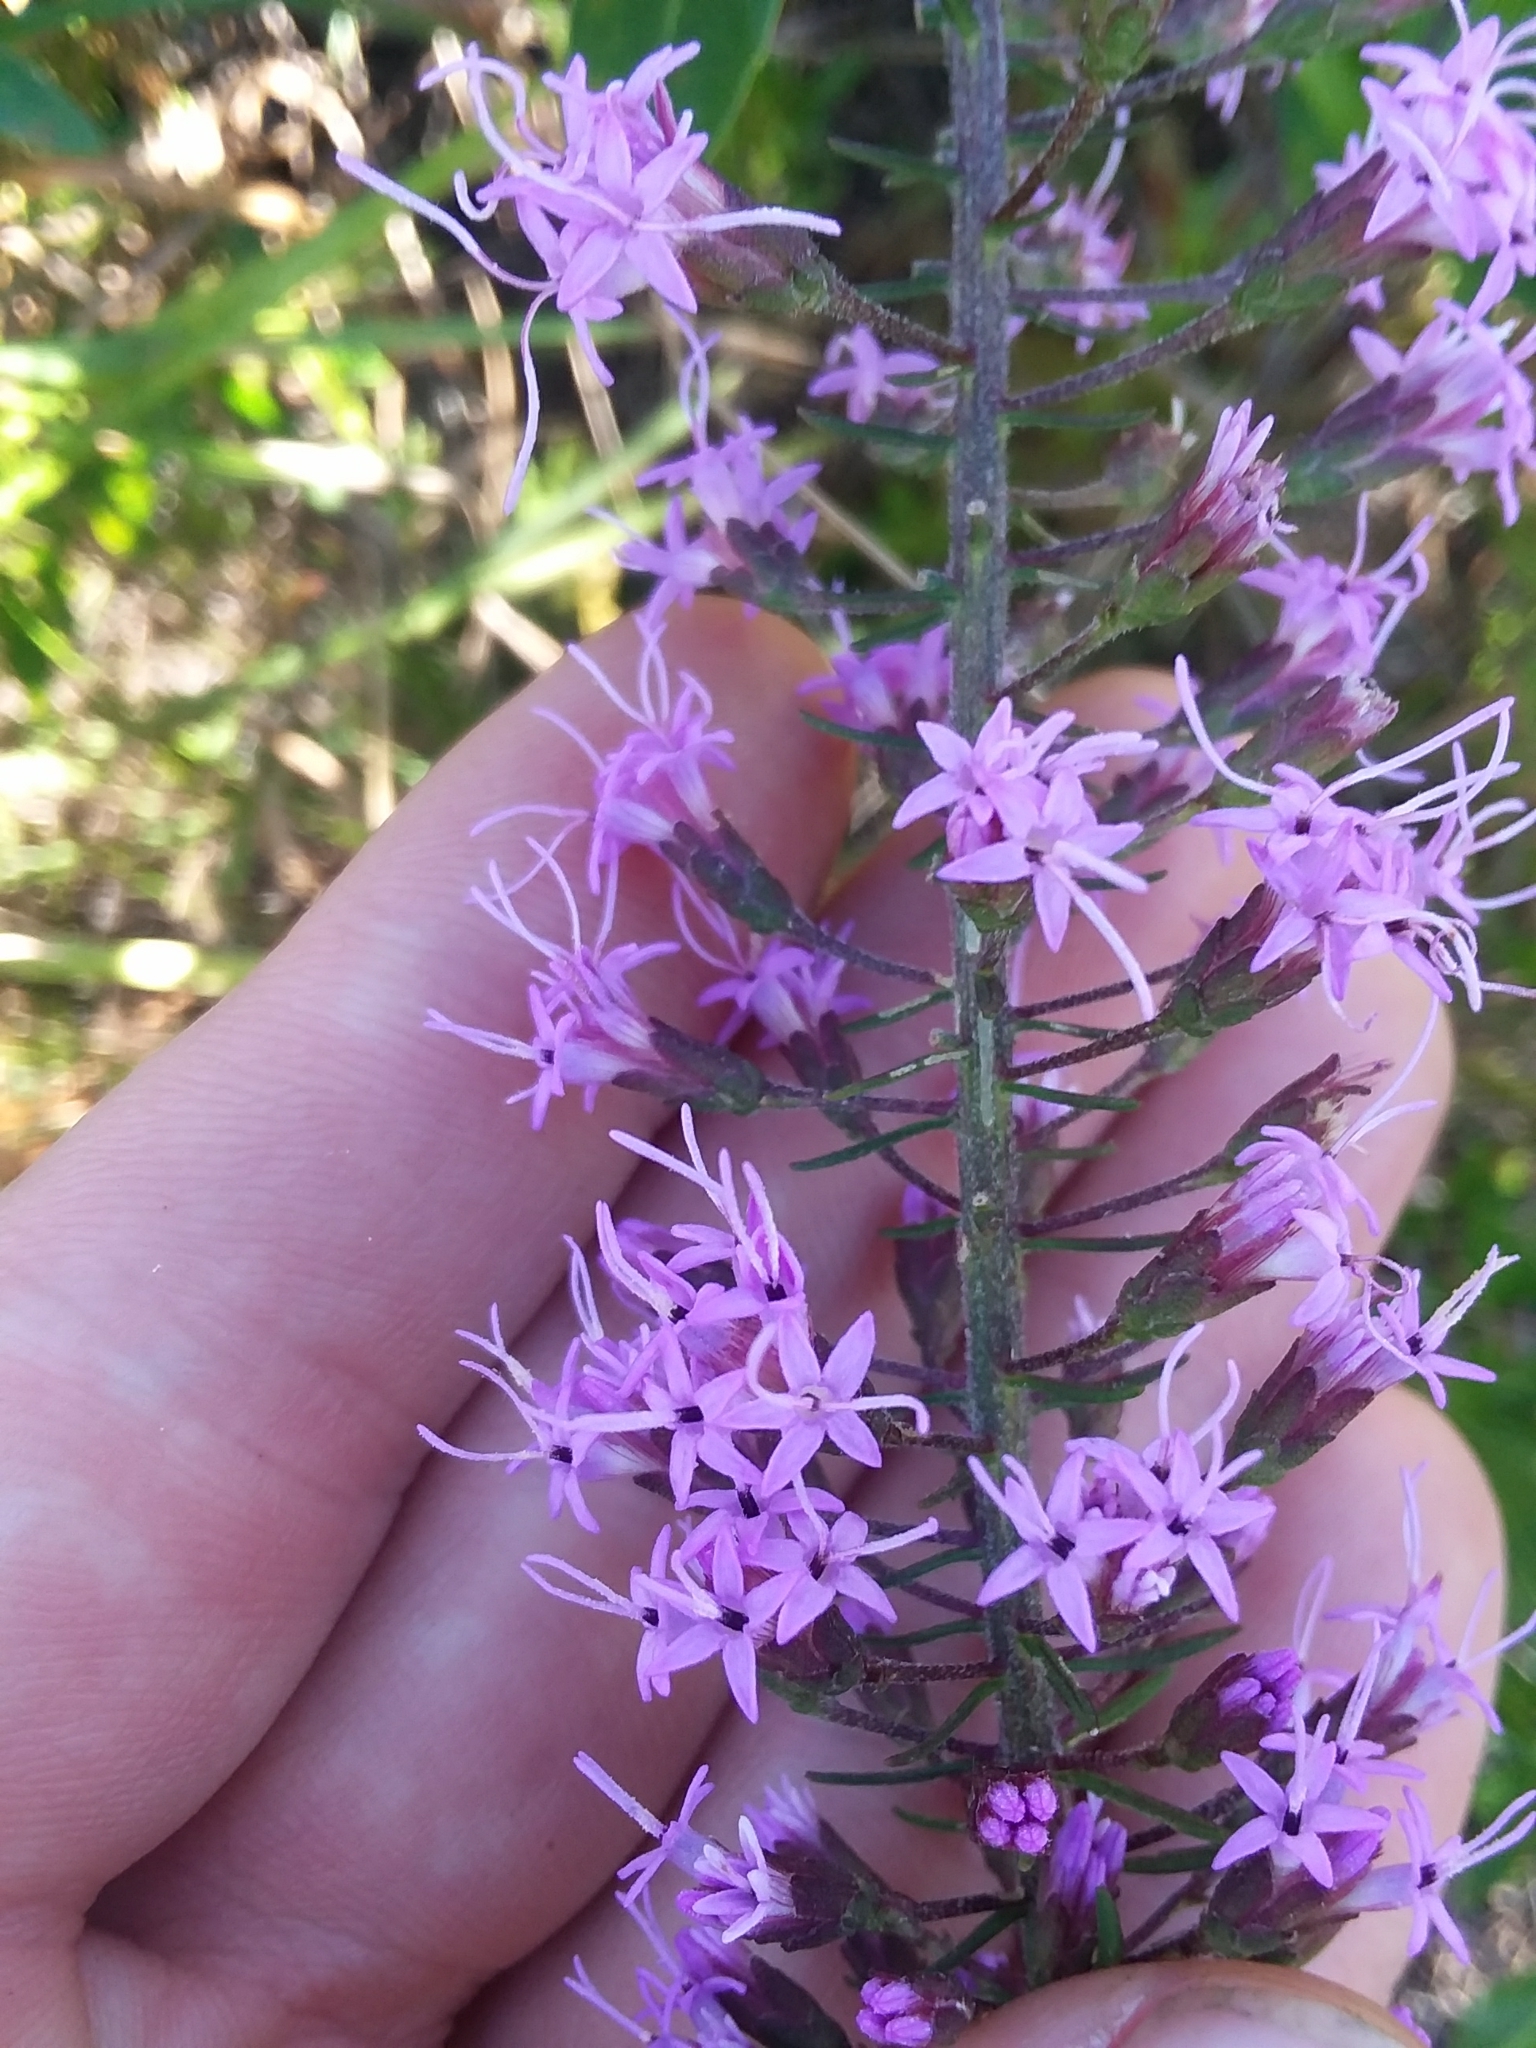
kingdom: Plantae
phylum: Tracheophyta
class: Magnoliopsida
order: Asterales
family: Asteraceae
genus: Liatris
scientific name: Liatris gracilis
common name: Slender gayfeather
